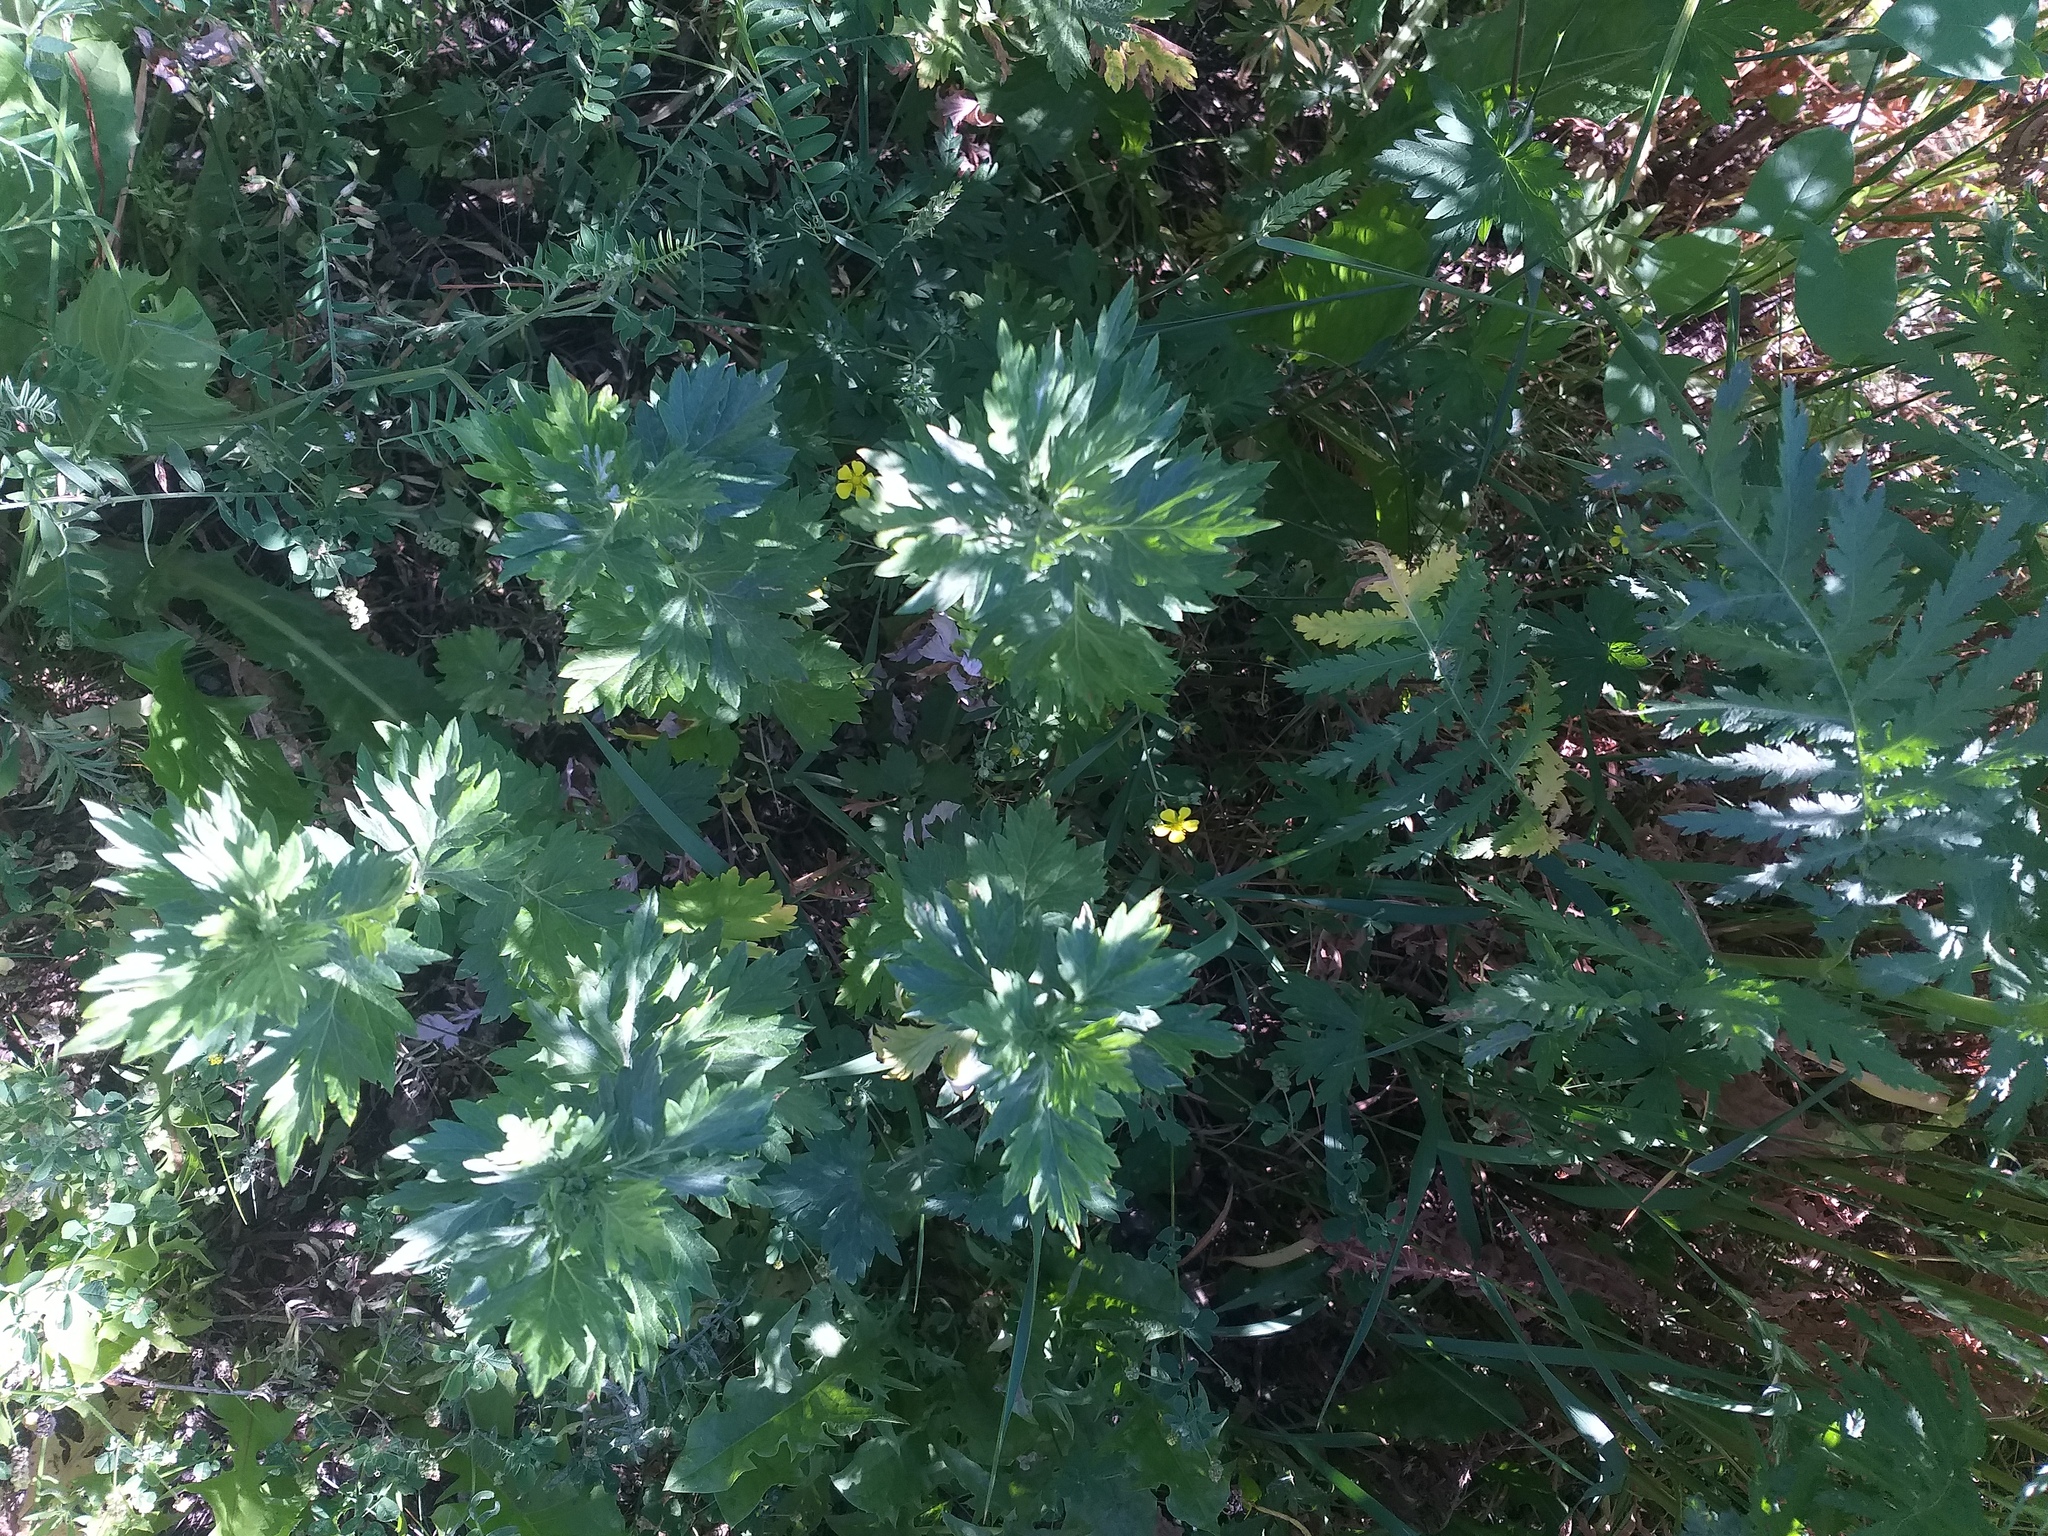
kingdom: Plantae
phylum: Tracheophyta
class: Magnoliopsida
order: Asterales
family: Asteraceae
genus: Artemisia
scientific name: Artemisia vulgaris
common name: Mugwort
